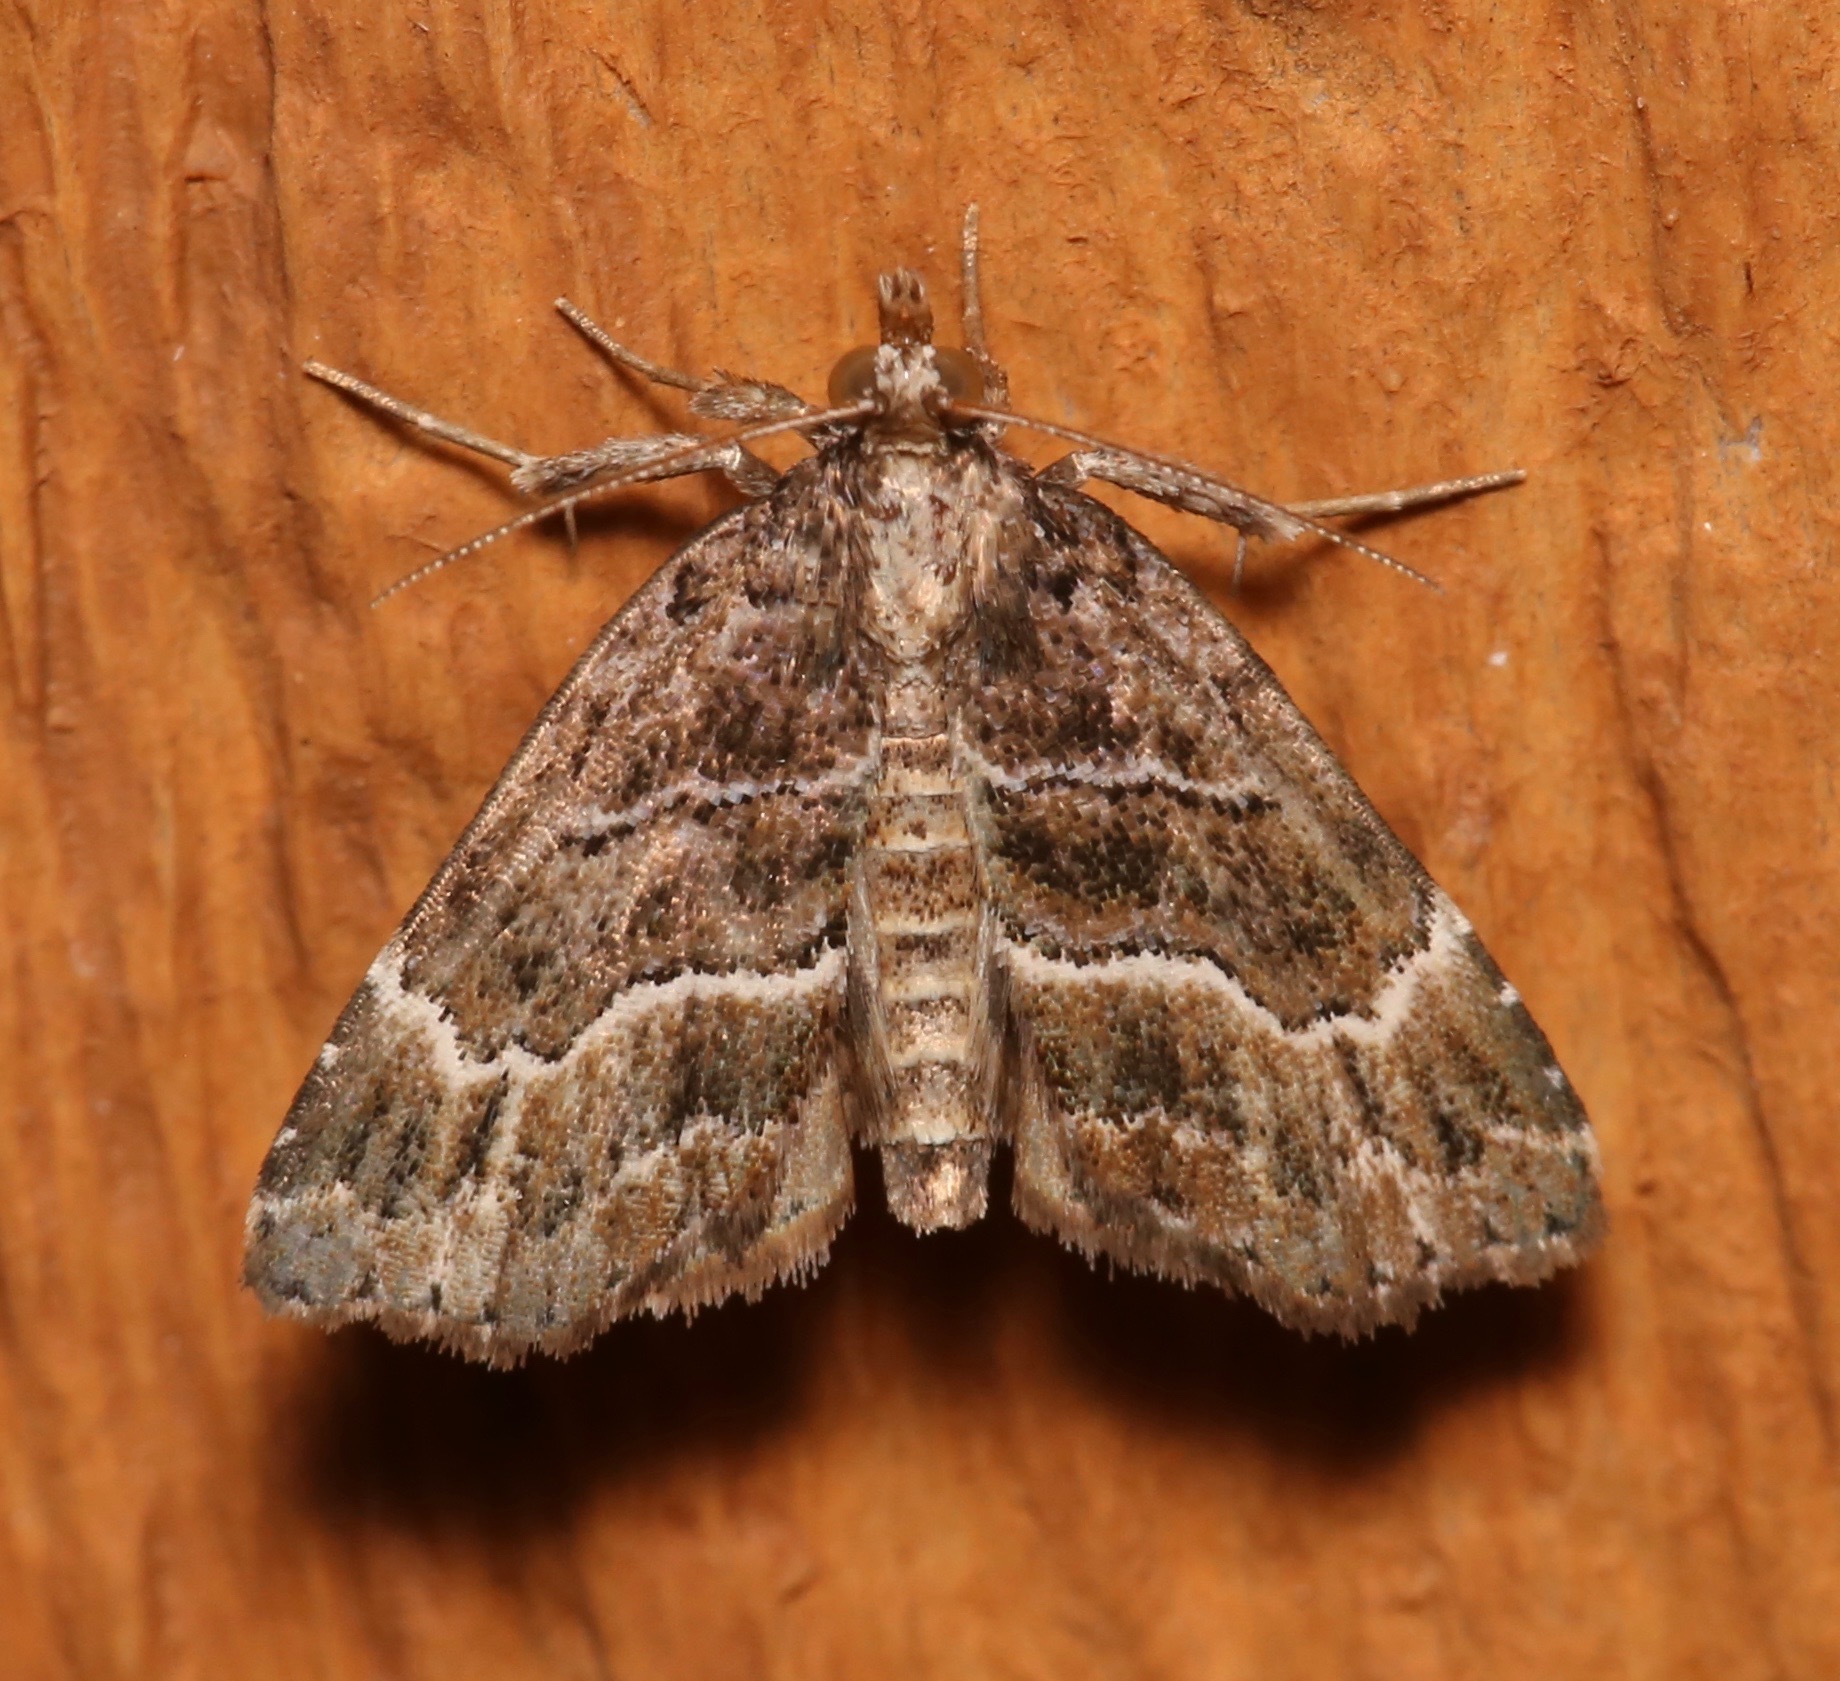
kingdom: Animalia
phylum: Arthropoda
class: Insecta
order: Lepidoptera
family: Erebidae
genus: Cutina
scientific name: Cutina arcuata
